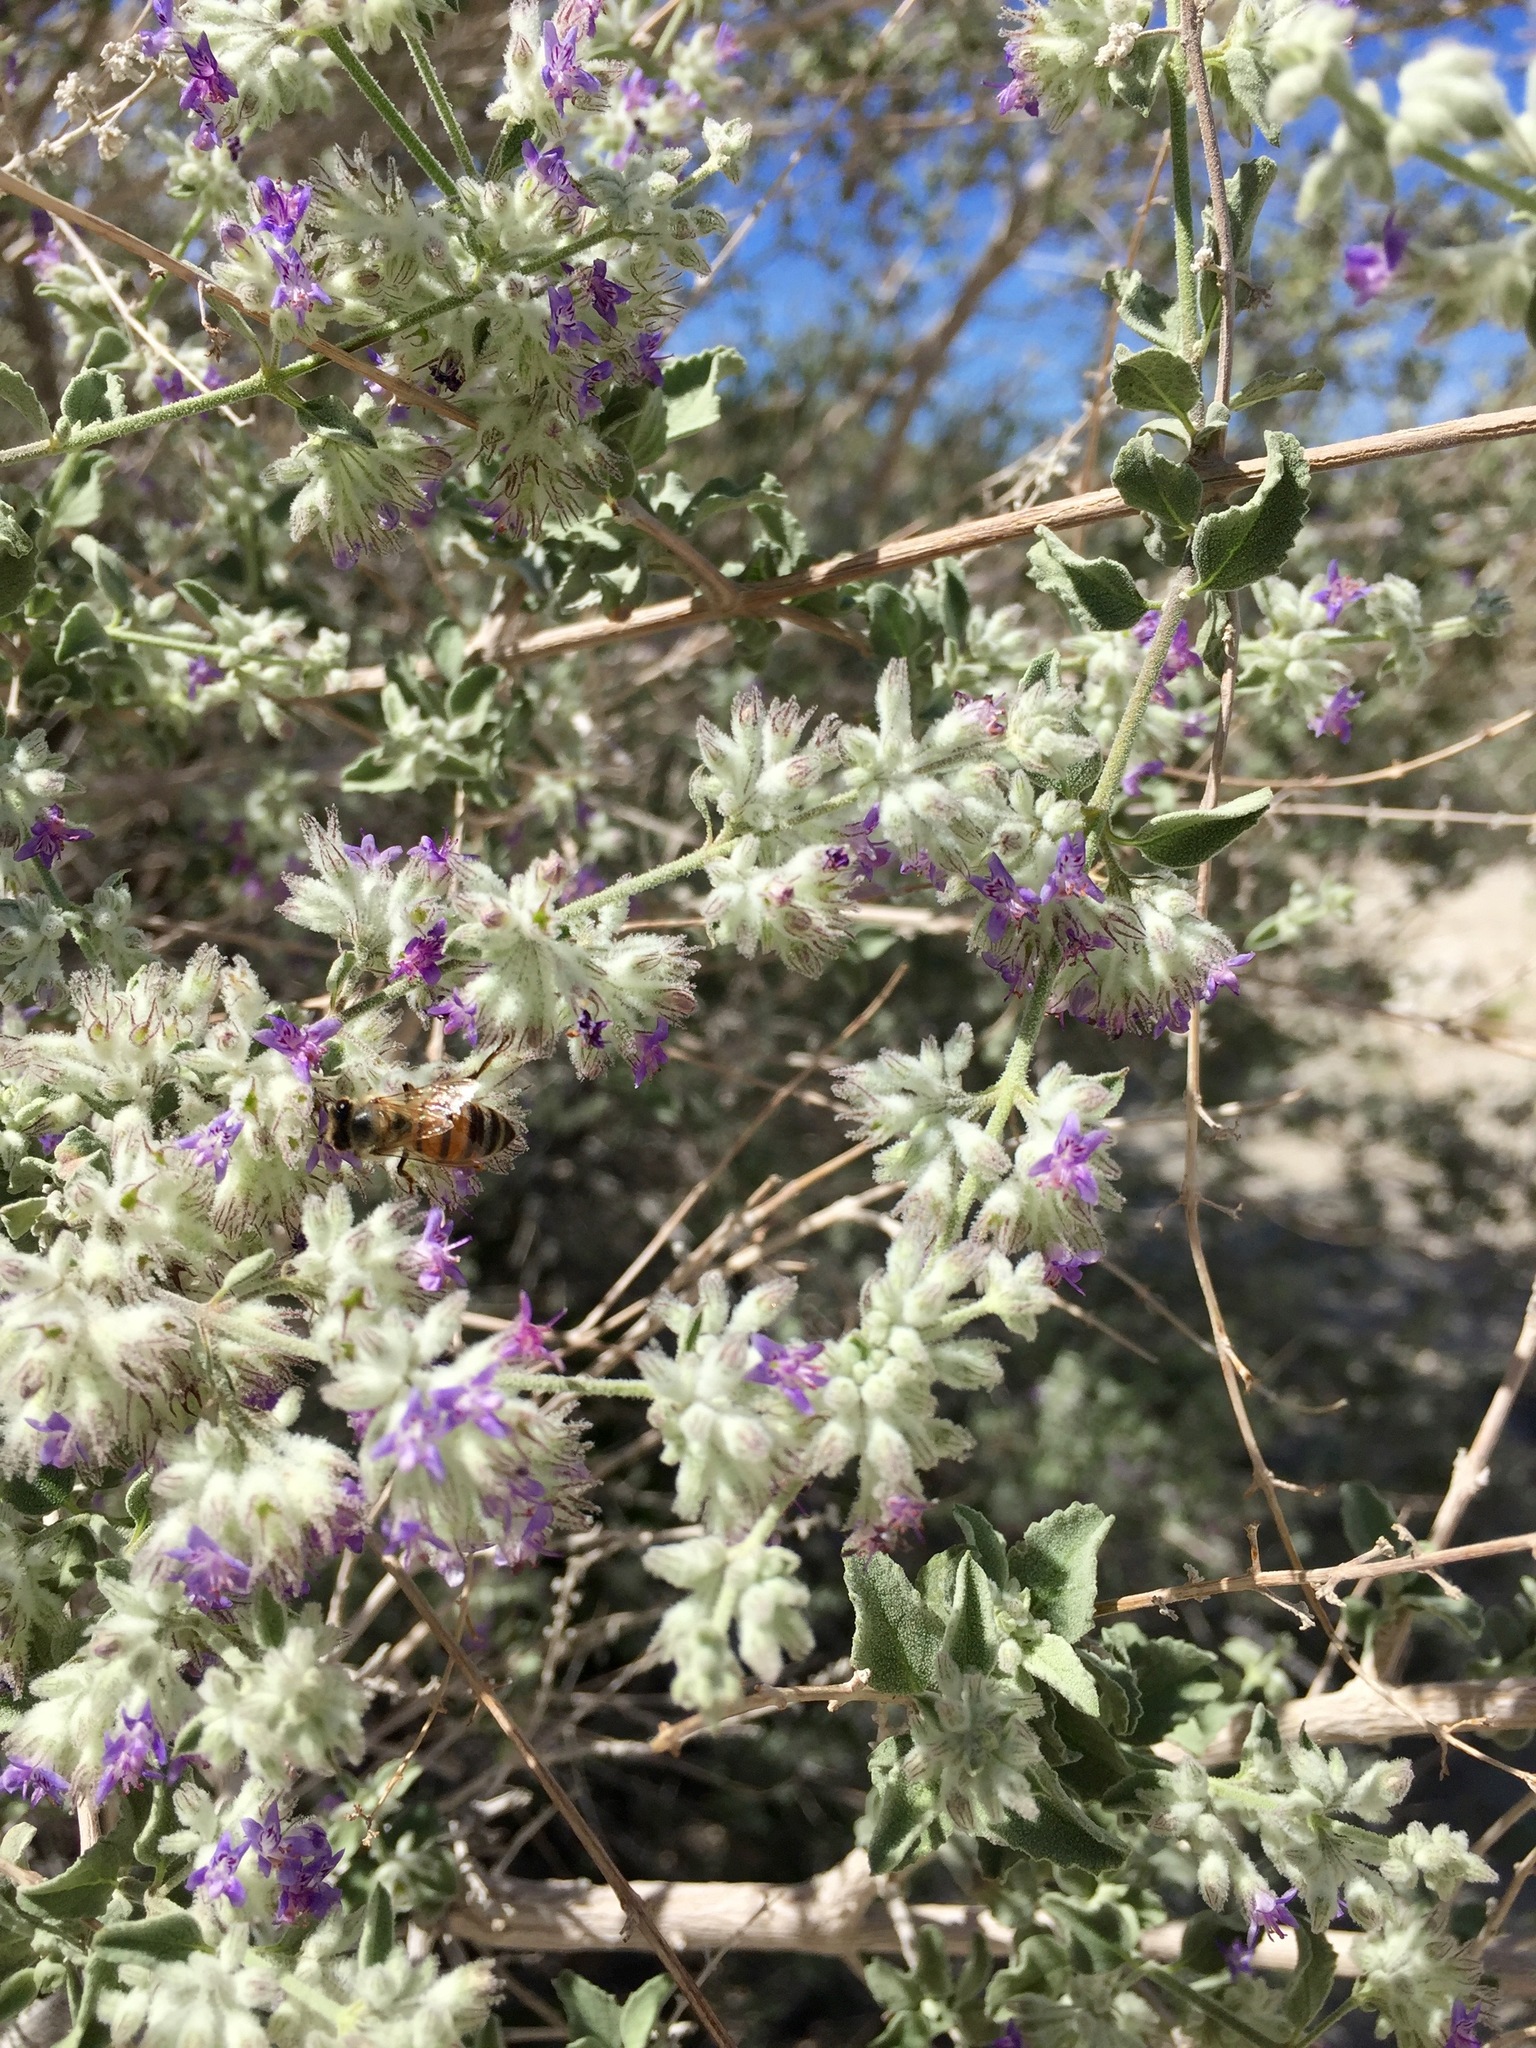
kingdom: Plantae
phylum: Tracheophyta
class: Magnoliopsida
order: Lamiales
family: Lamiaceae
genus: Condea
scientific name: Condea emoryi
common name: Chia
